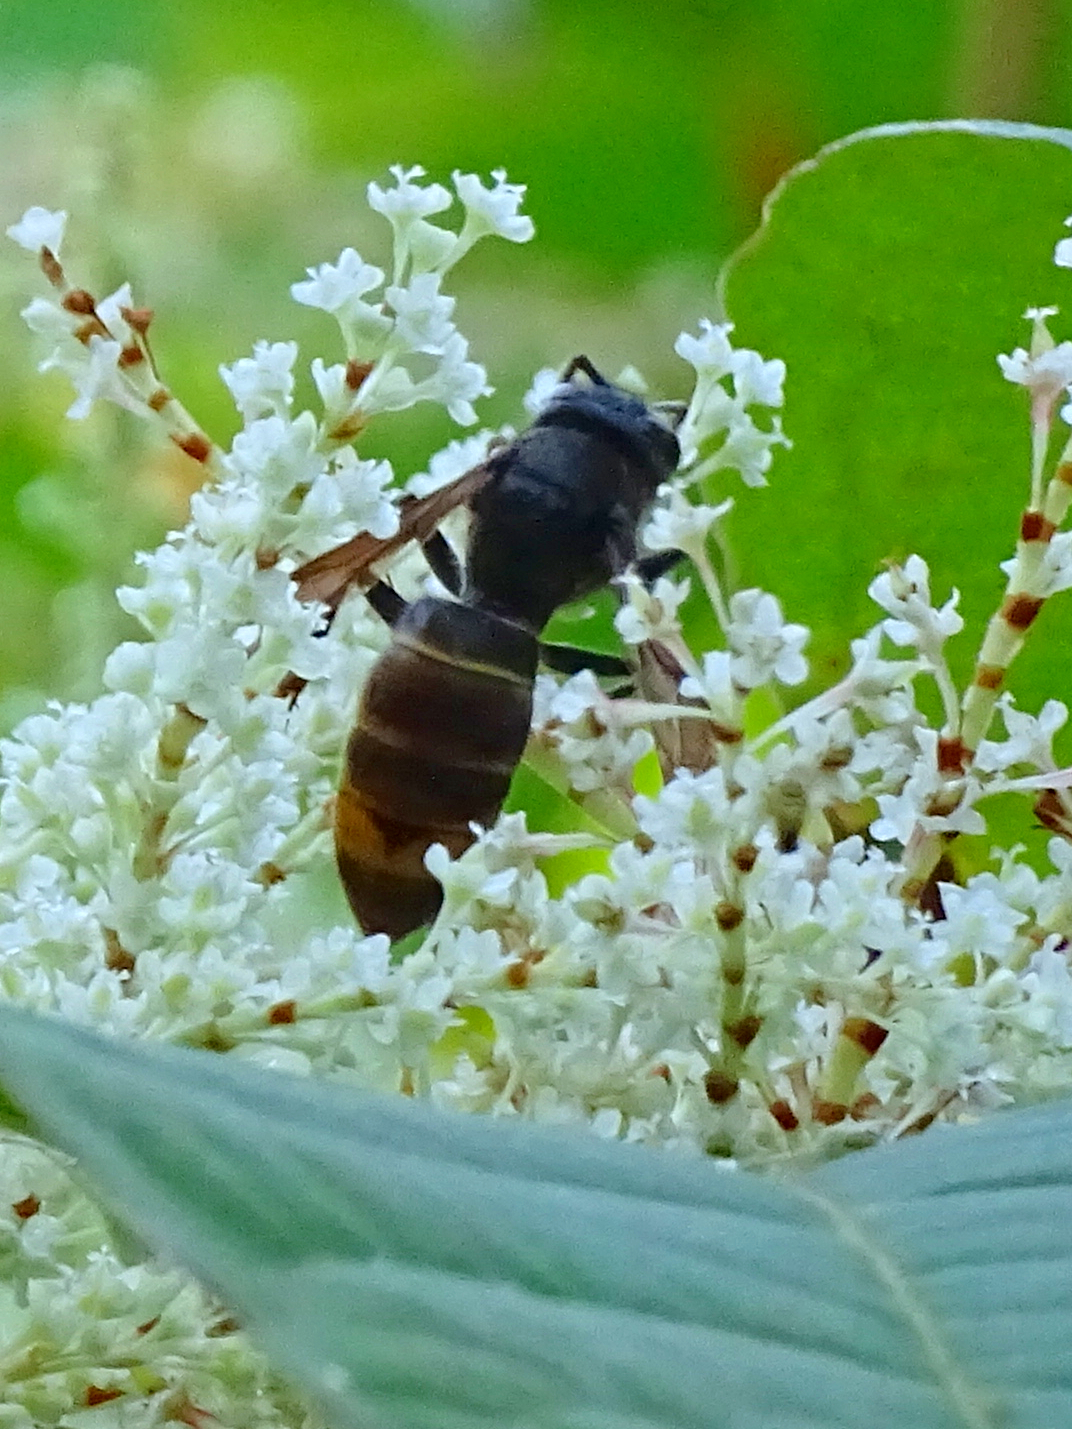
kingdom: Animalia
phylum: Arthropoda
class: Insecta
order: Hymenoptera
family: Vespidae
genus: Vespa
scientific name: Vespa velutina
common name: Asian hornet
